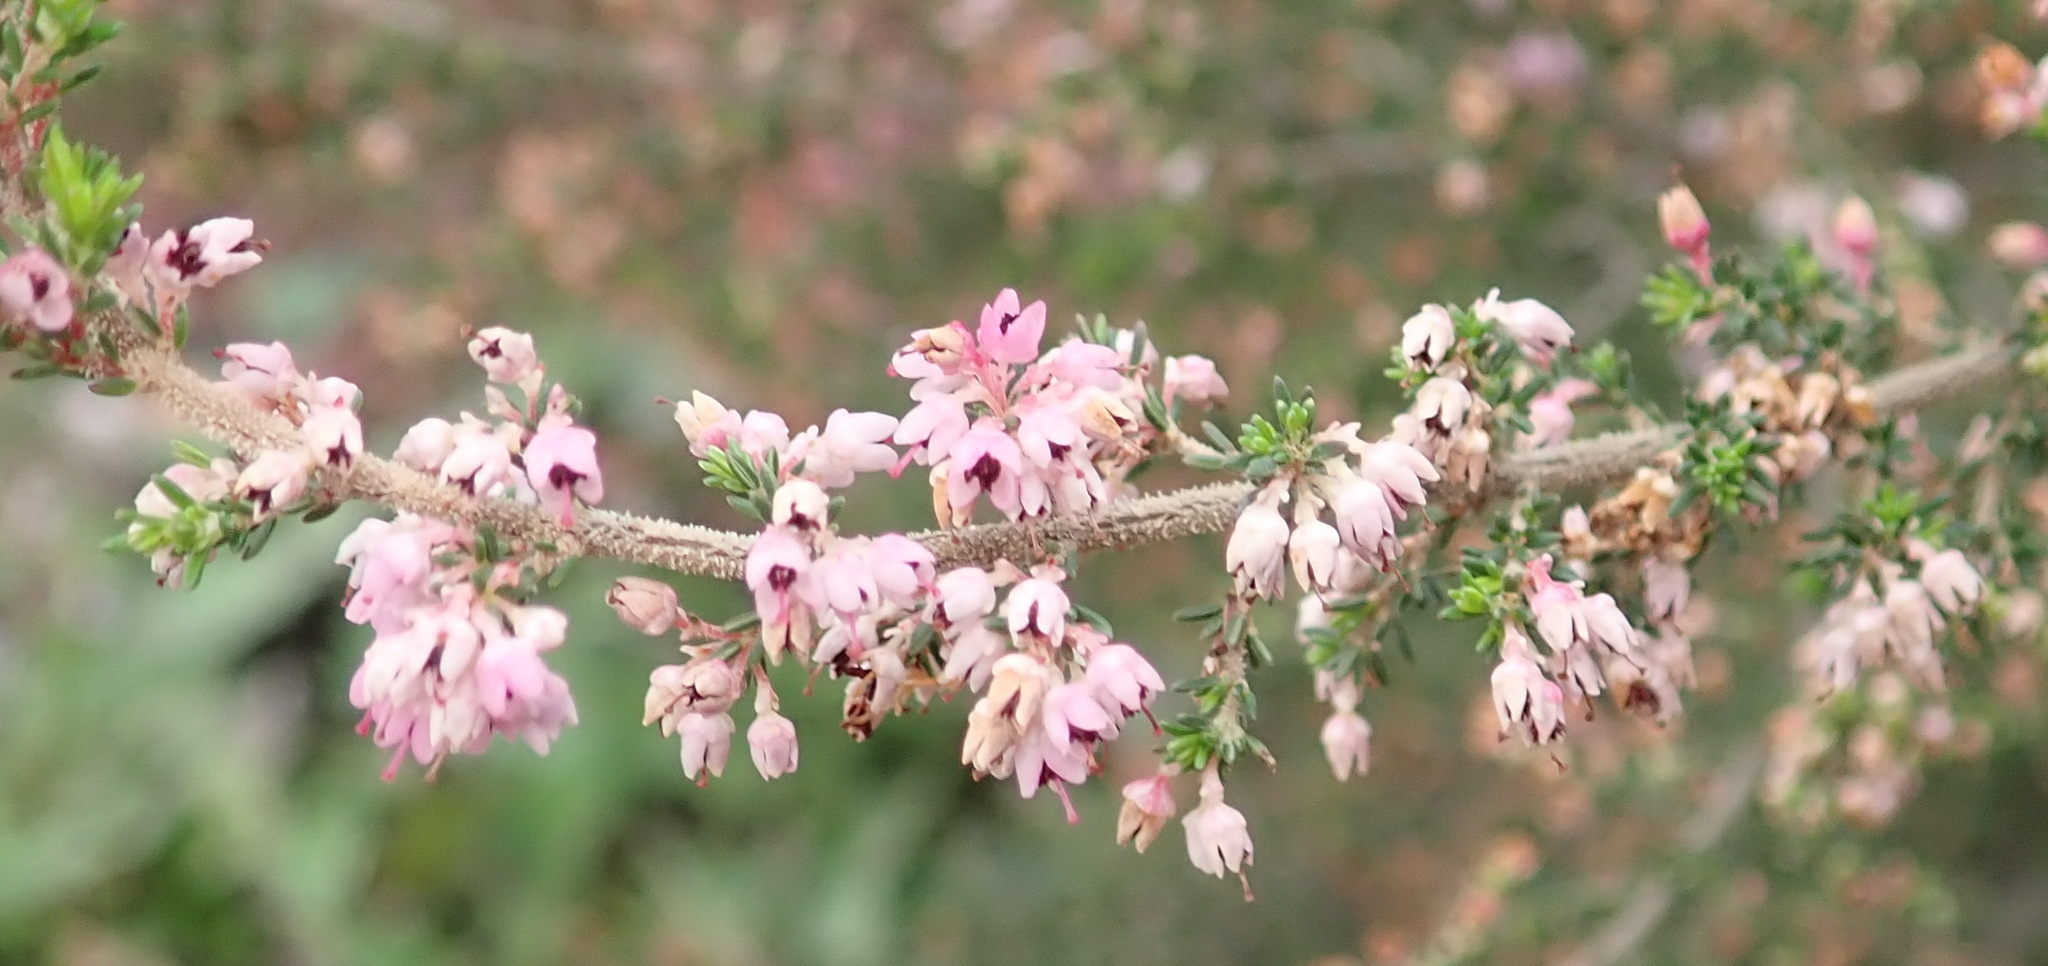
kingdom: Plantae
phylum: Tracheophyta
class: Magnoliopsida
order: Ericales
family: Ericaceae
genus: Erica
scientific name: Erica sparsa
